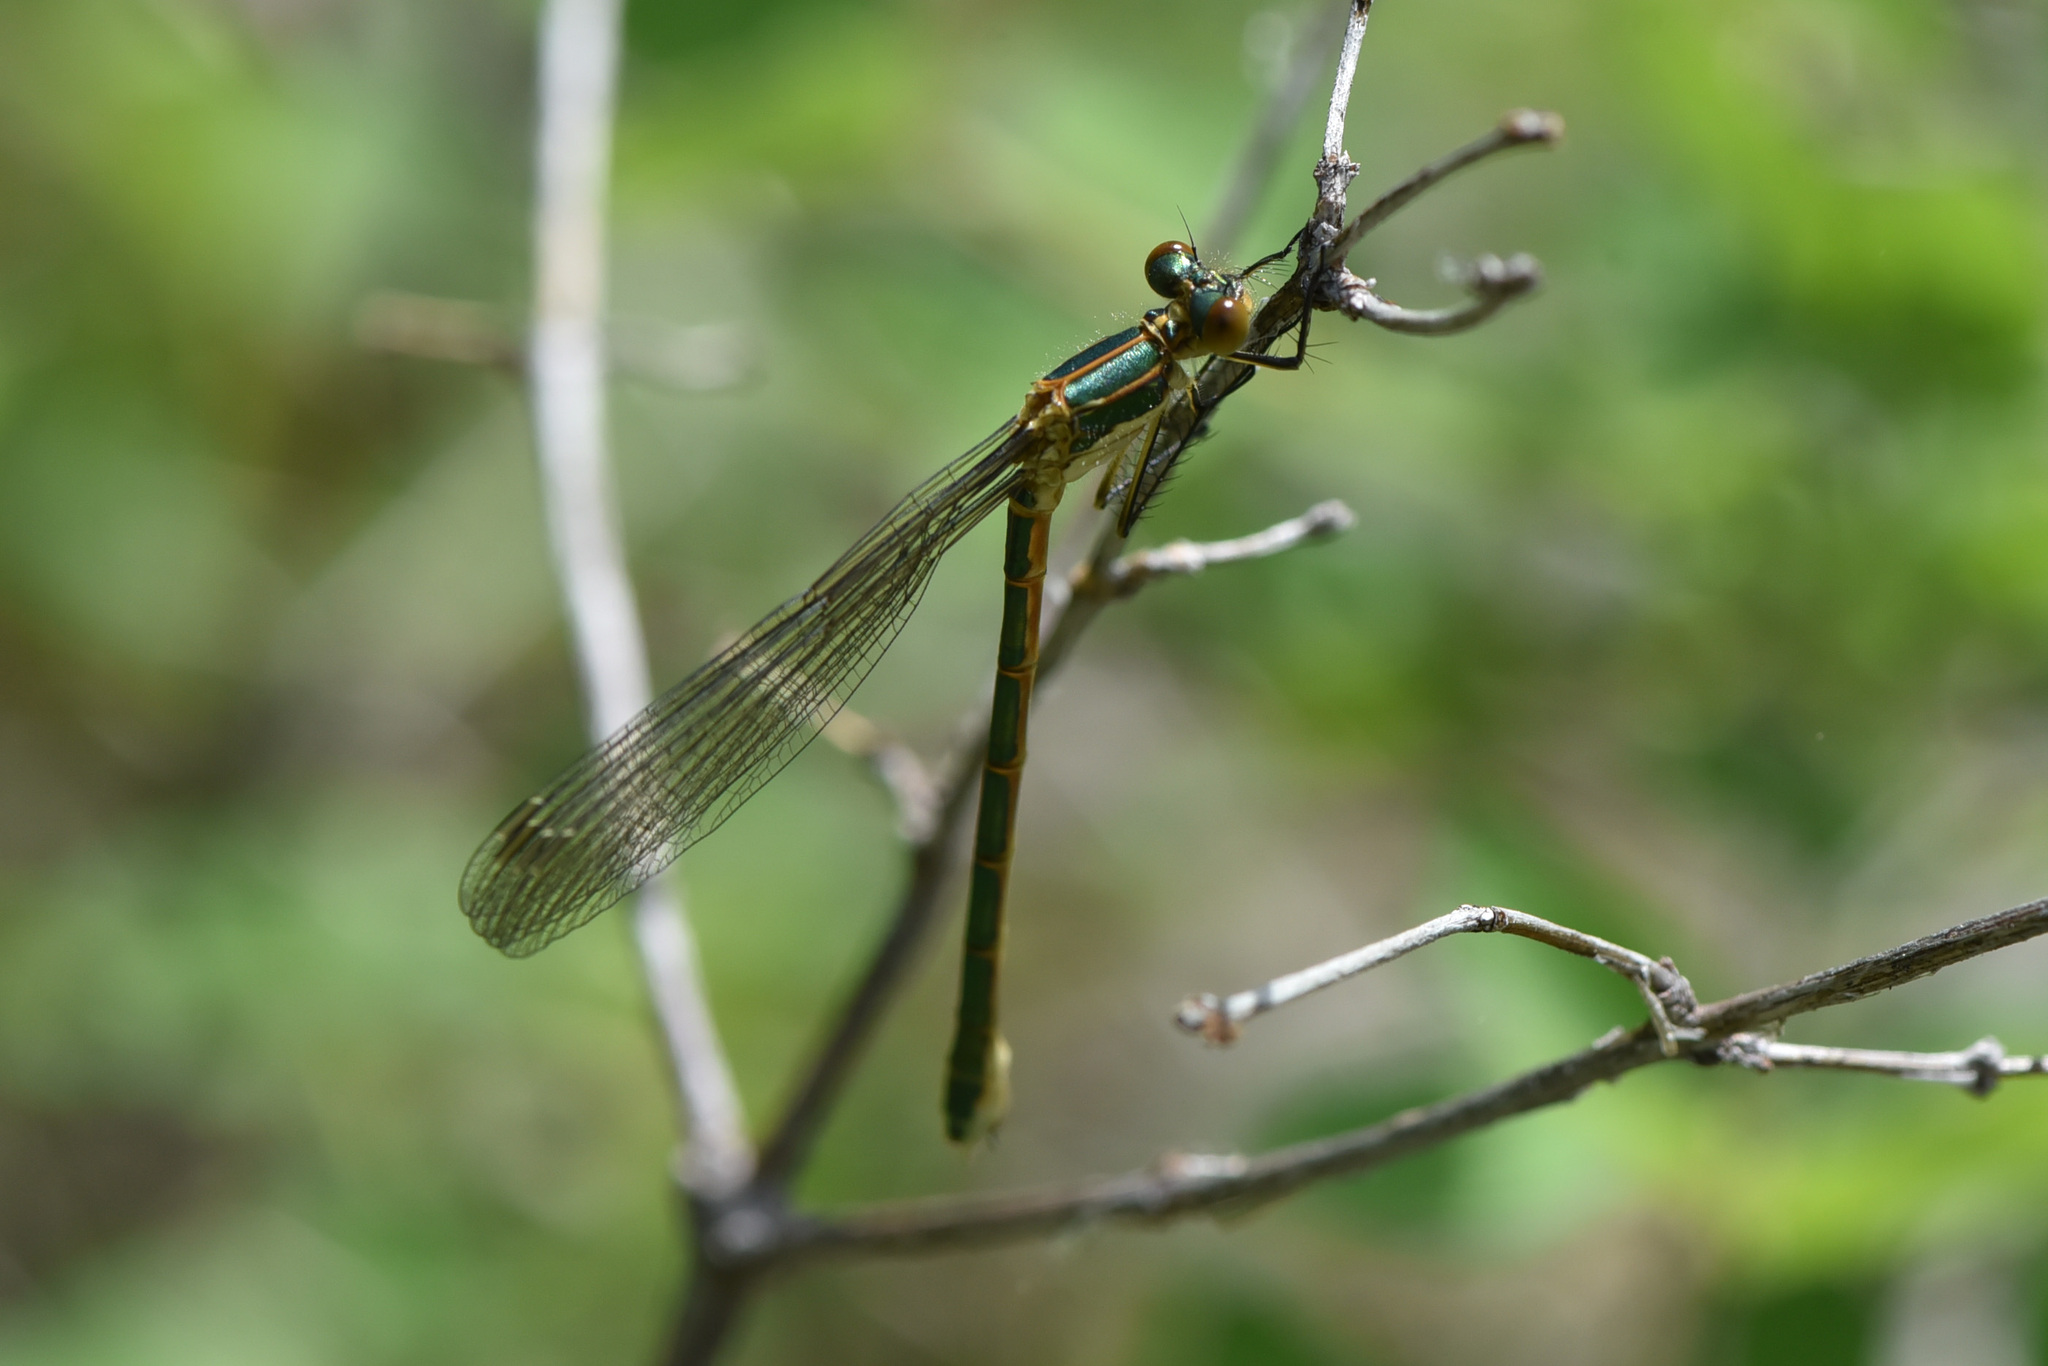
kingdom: Animalia
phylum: Arthropoda
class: Insecta
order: Odonata
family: Lestidae
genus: Lestes
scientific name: Lestes dryas
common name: Scarce emerald damselfly
